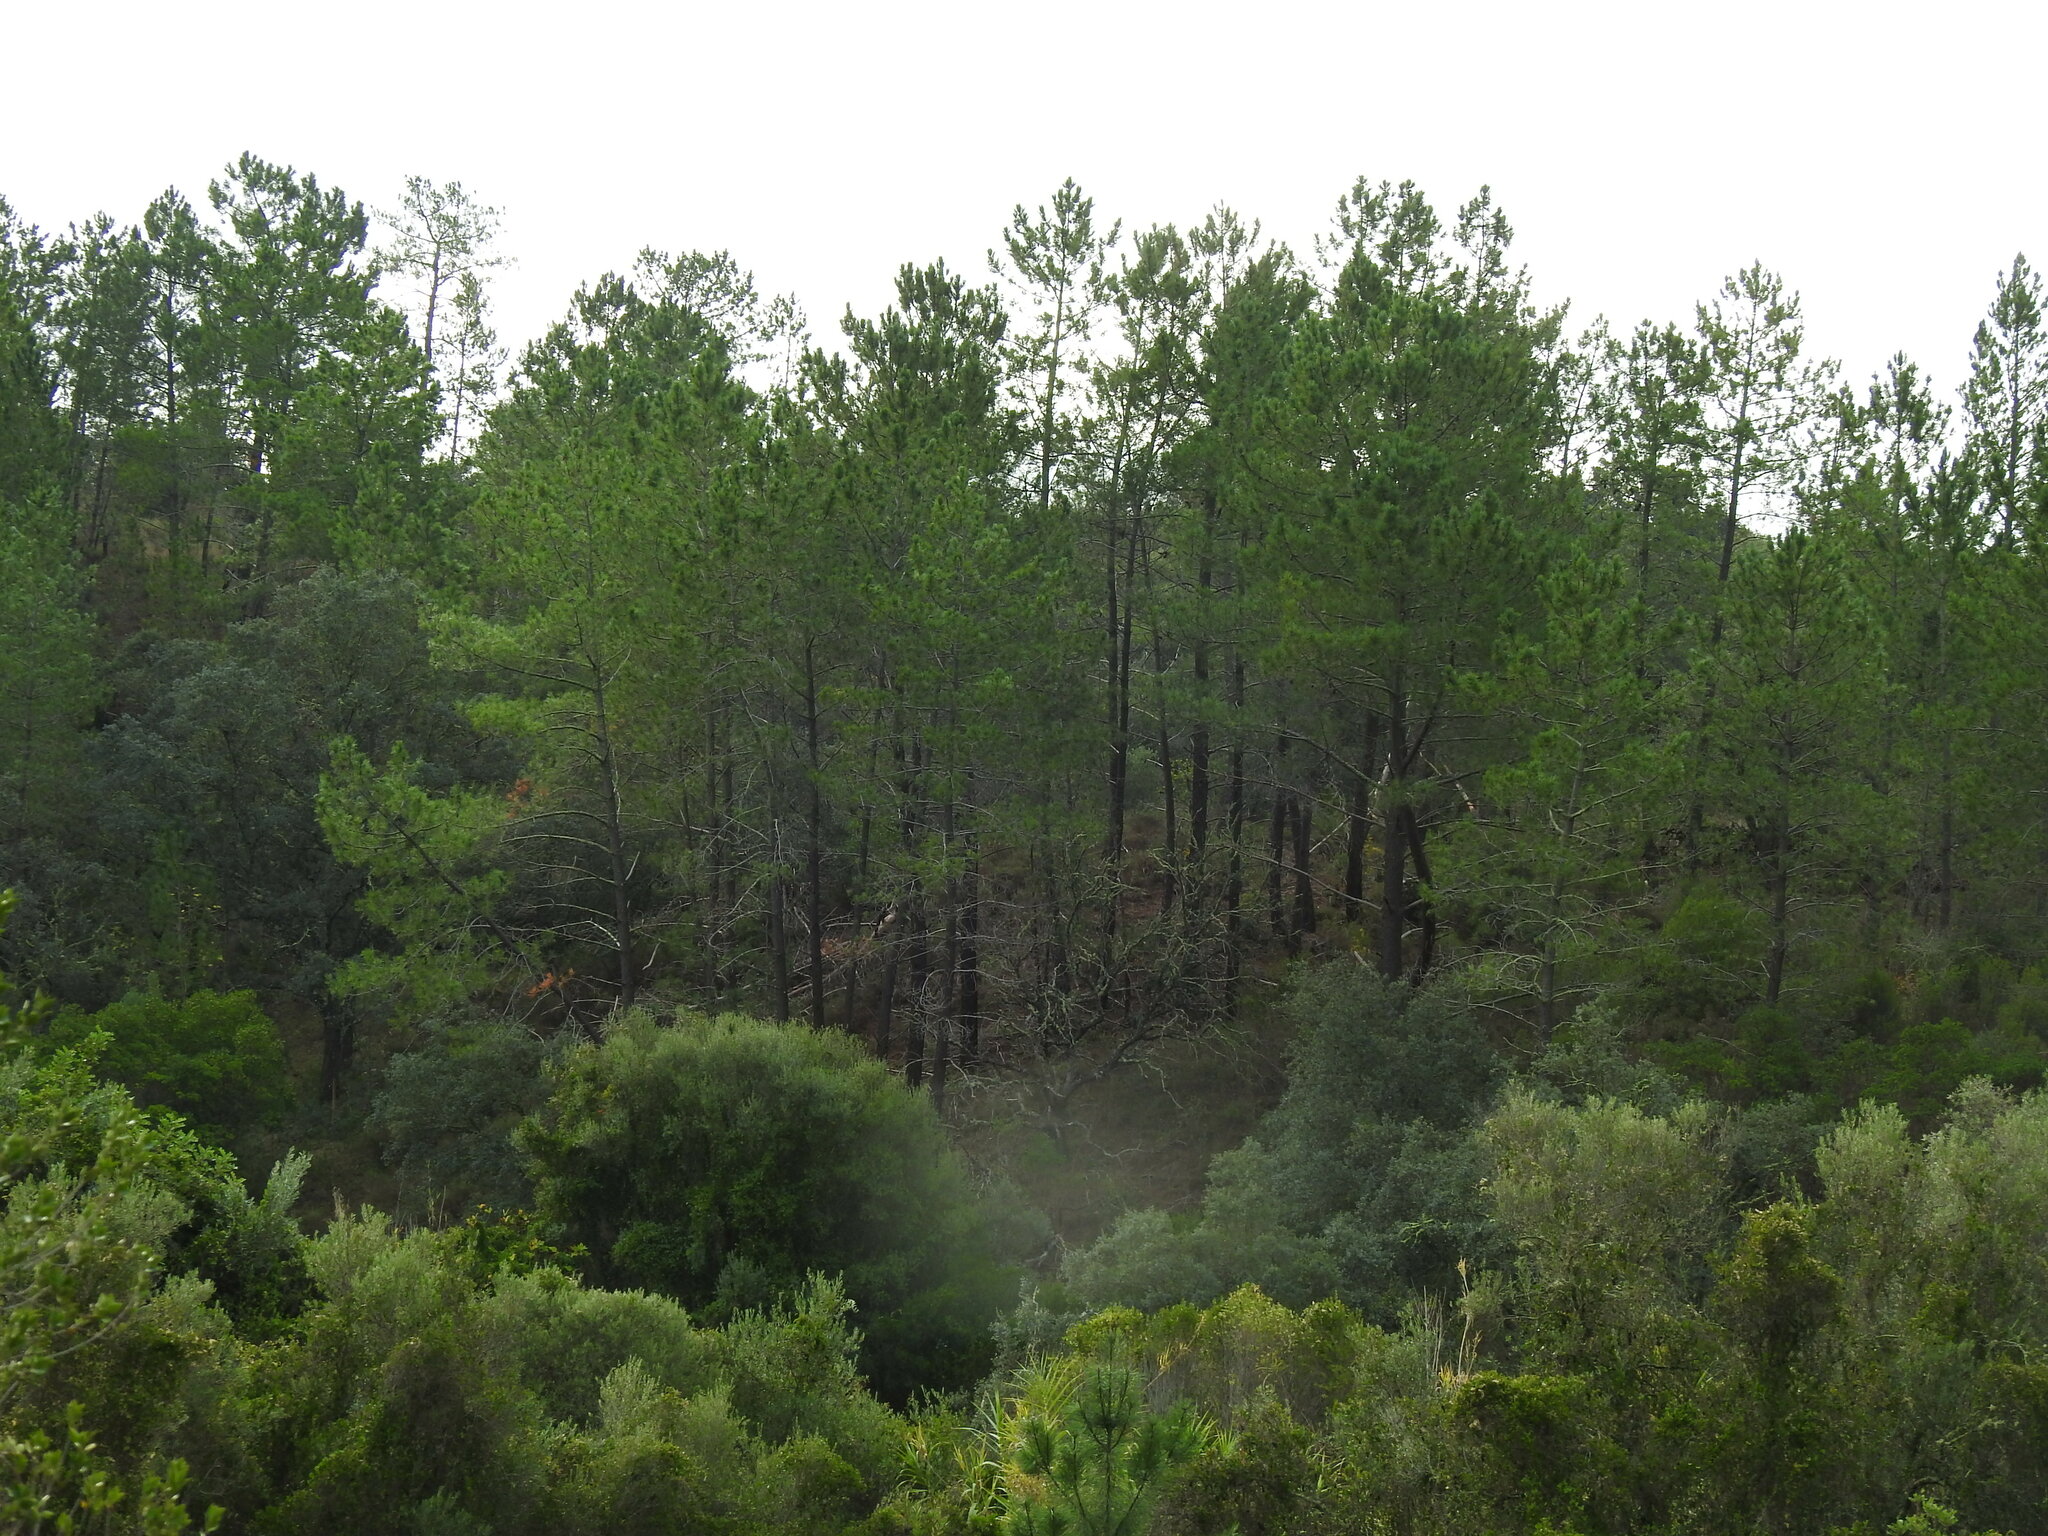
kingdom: Plantae
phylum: Tracheophyta
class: Pinopsida
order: Pinales
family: Pinaceae
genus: Pinus
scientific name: Pinus pinaster
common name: Maritime pine
